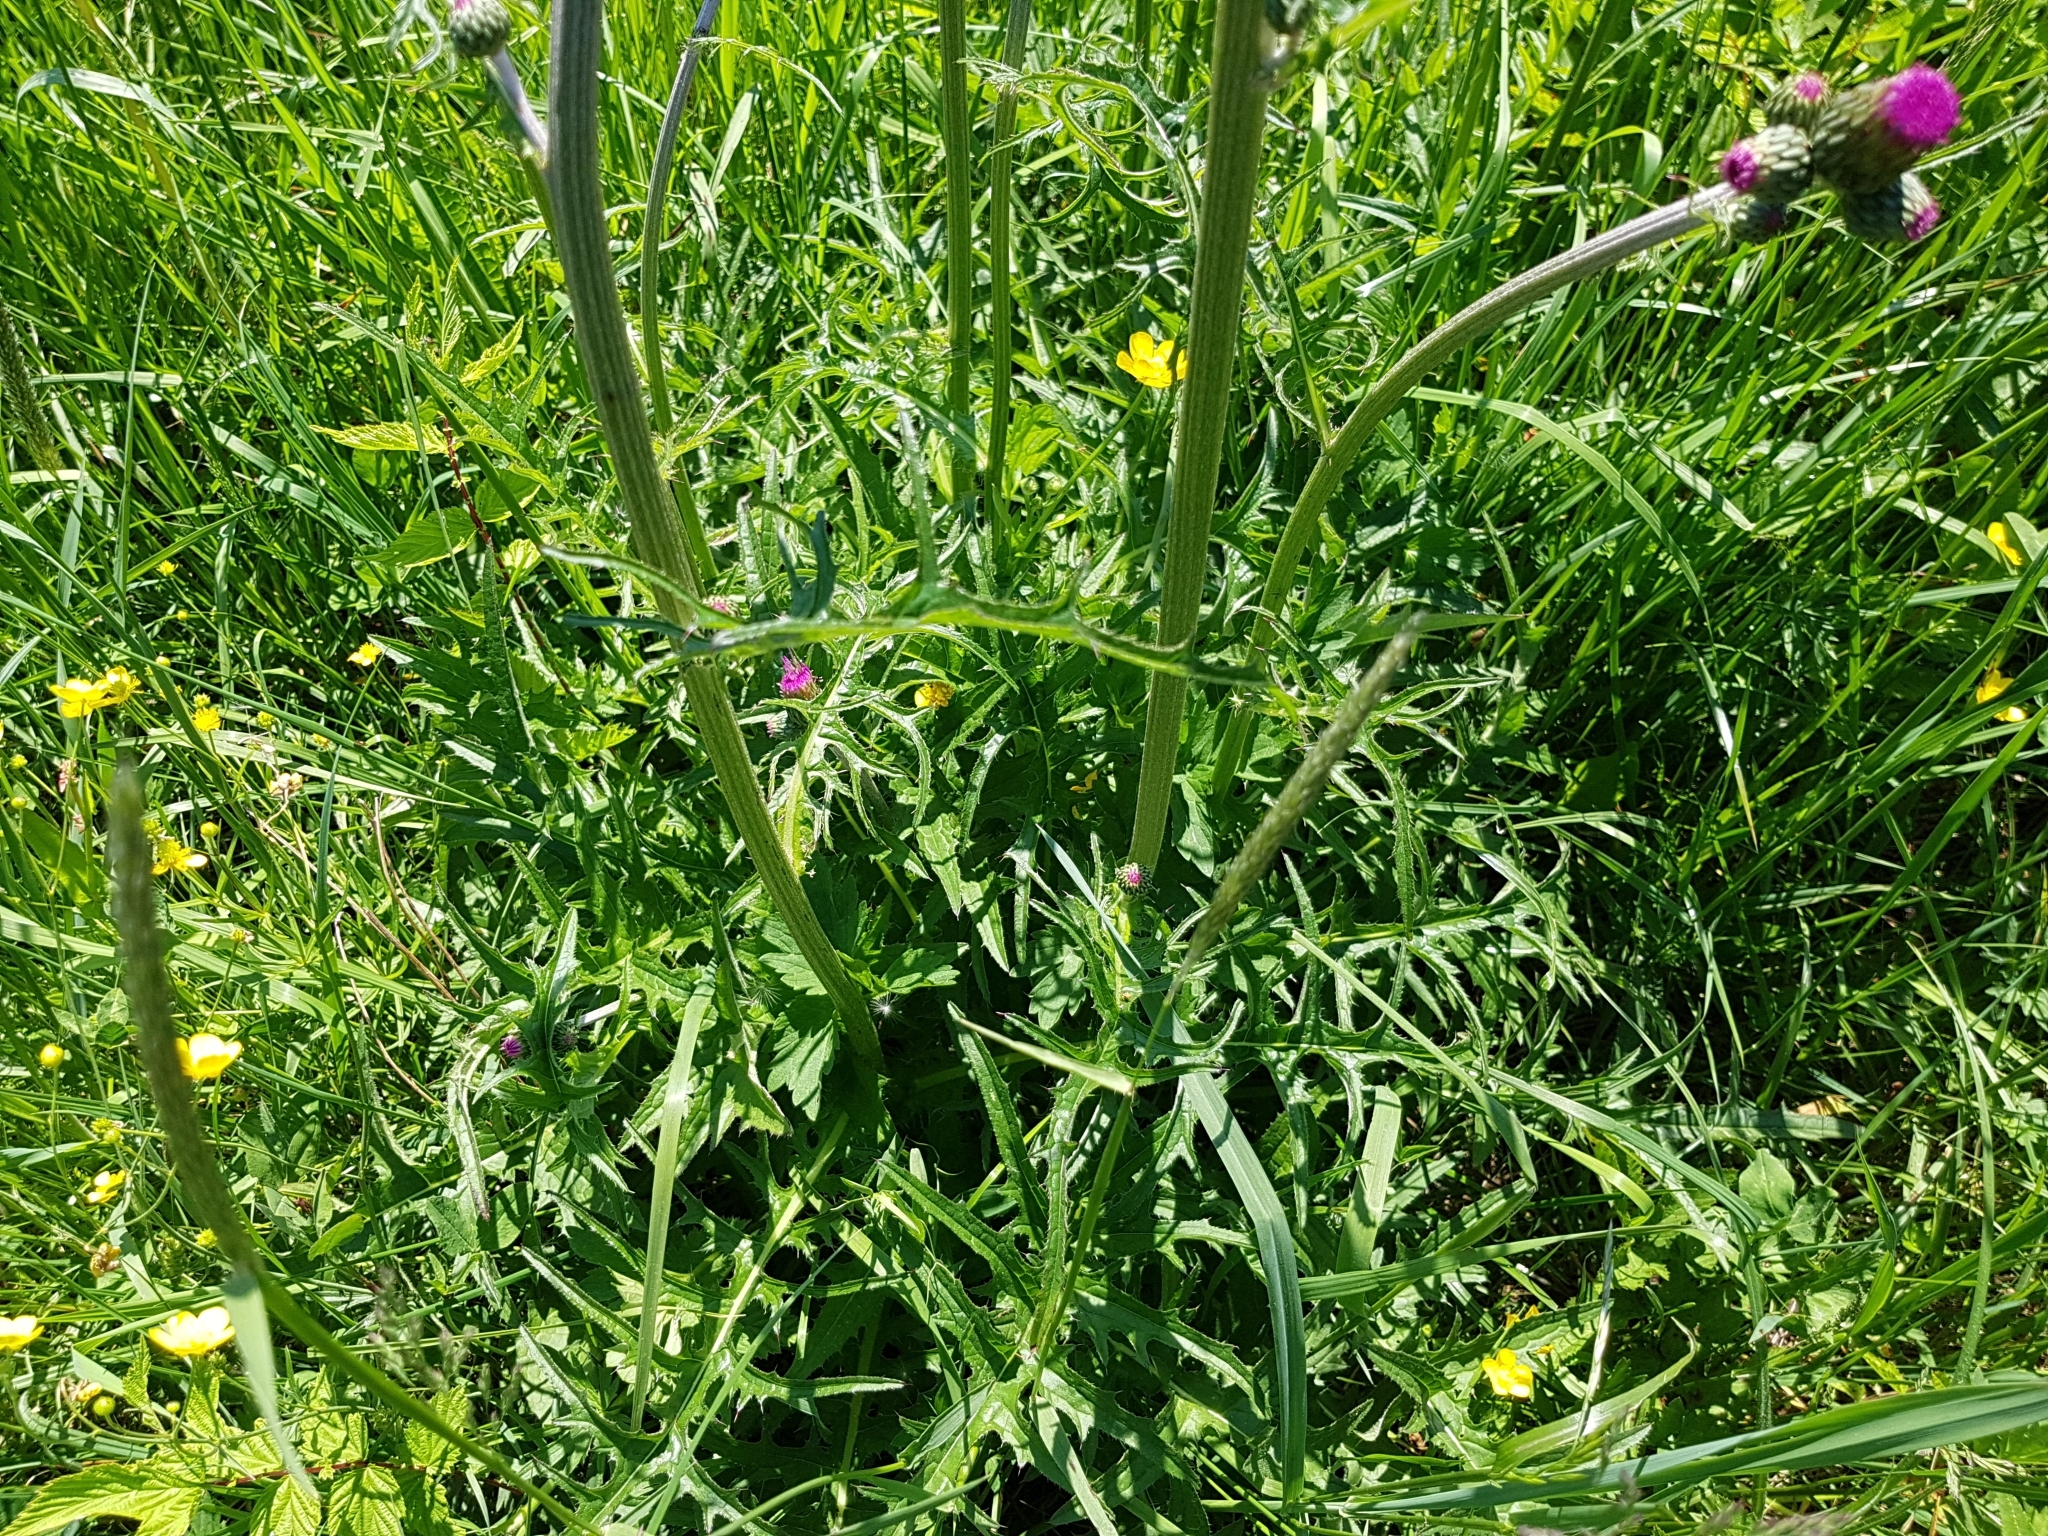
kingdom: Plantae
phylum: Tracheophyta
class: Magnoliopsida
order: Asterales
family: Asteraceae
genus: Cirsium
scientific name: Cirsium rivulare
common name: Brook thistle
